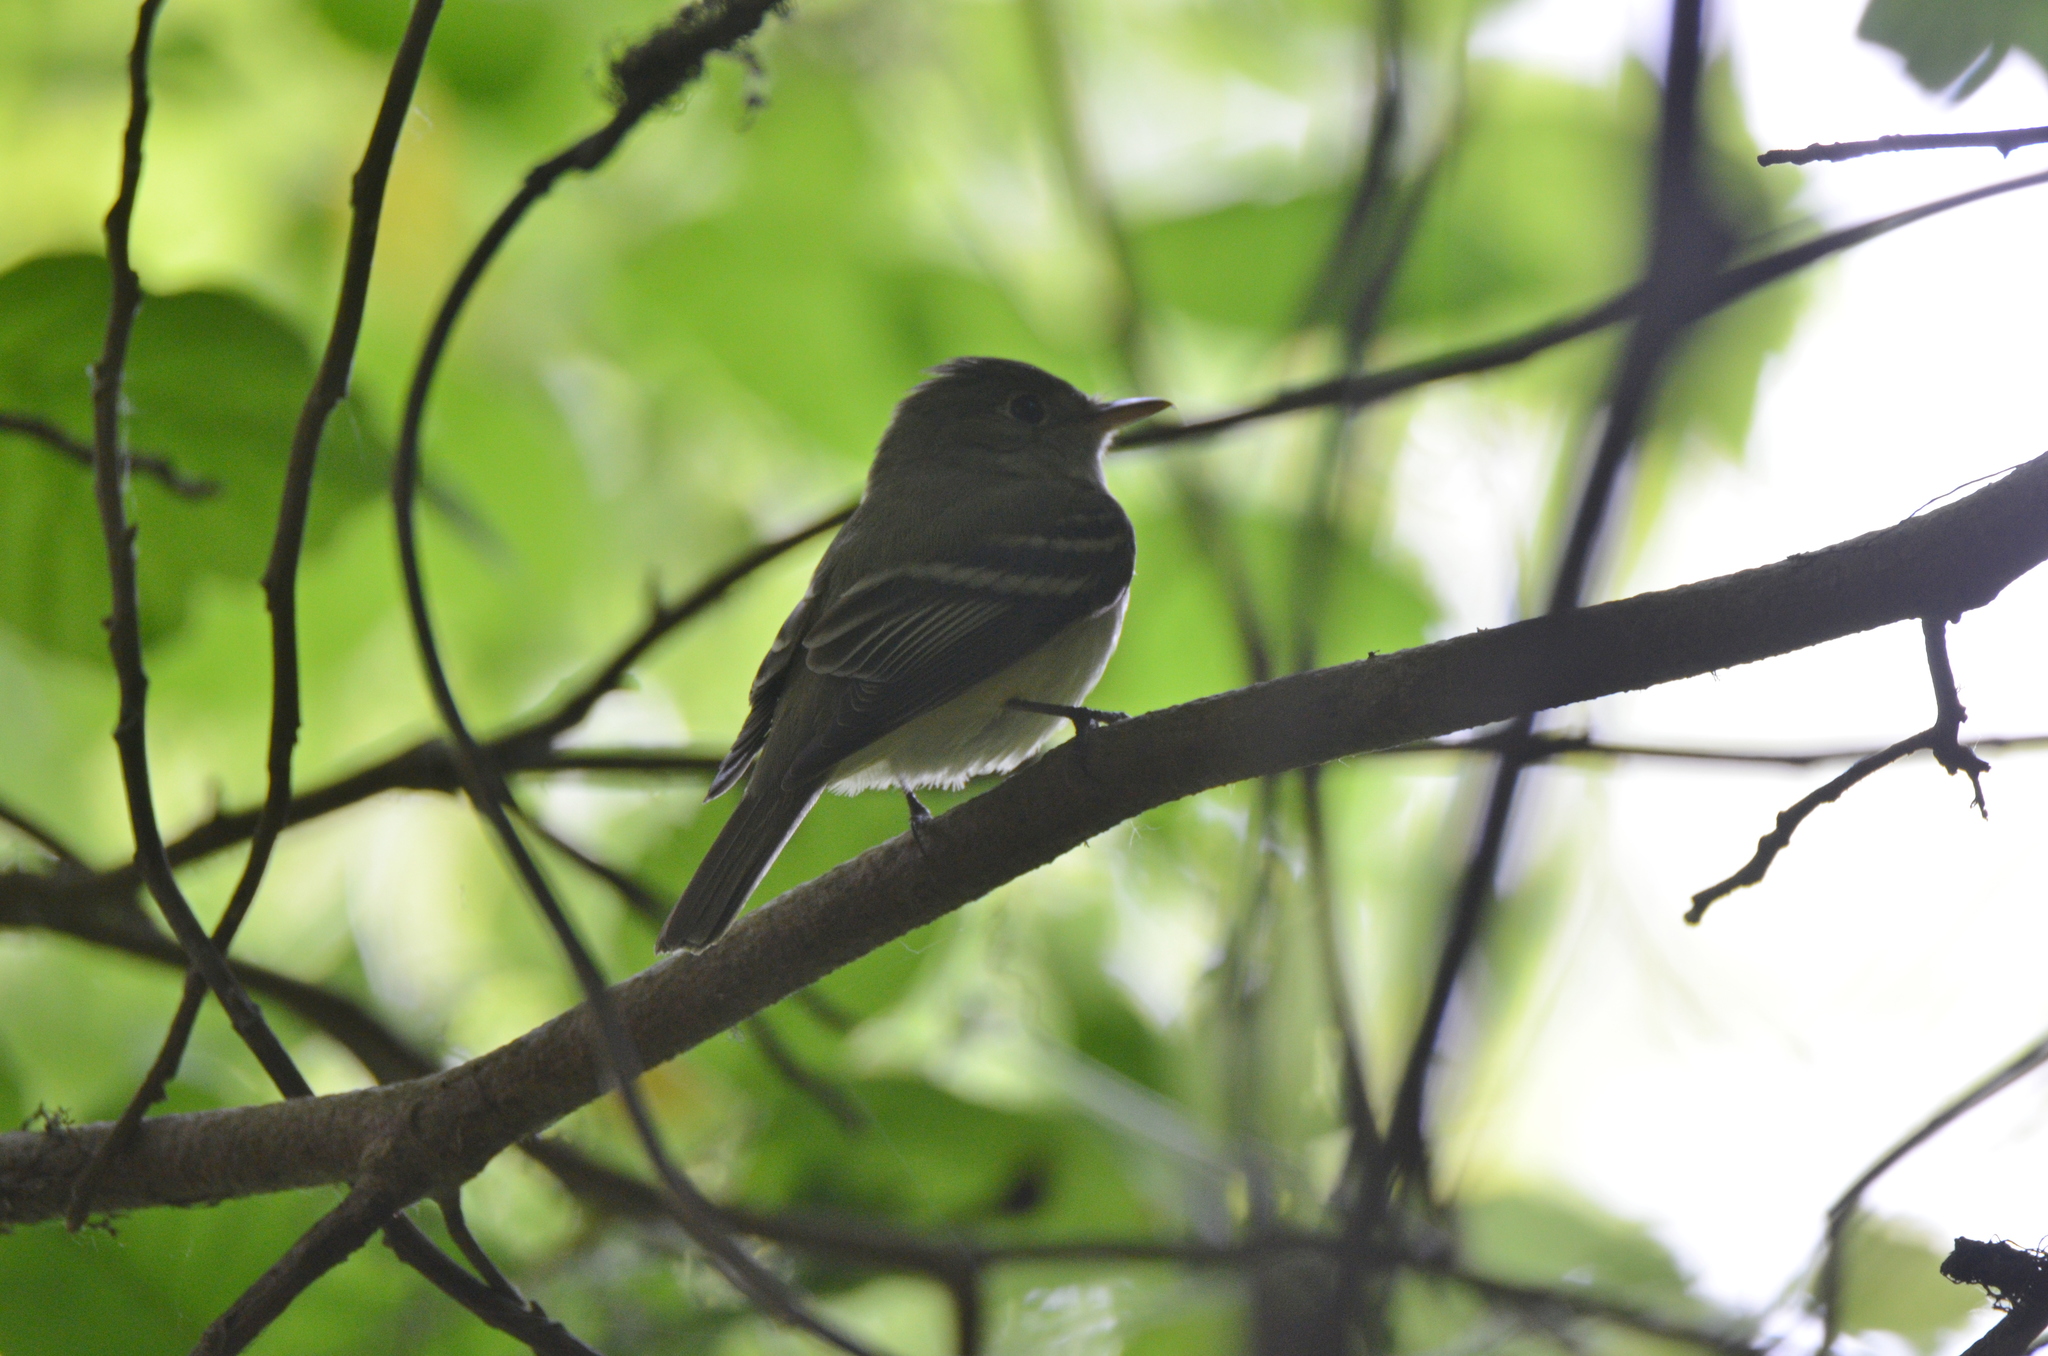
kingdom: Animalia
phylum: Chordata
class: Aves
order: Passeriformes
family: Tyrannidae
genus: Empidonax
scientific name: Empidonax virescens
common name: Acadian flycatcher
